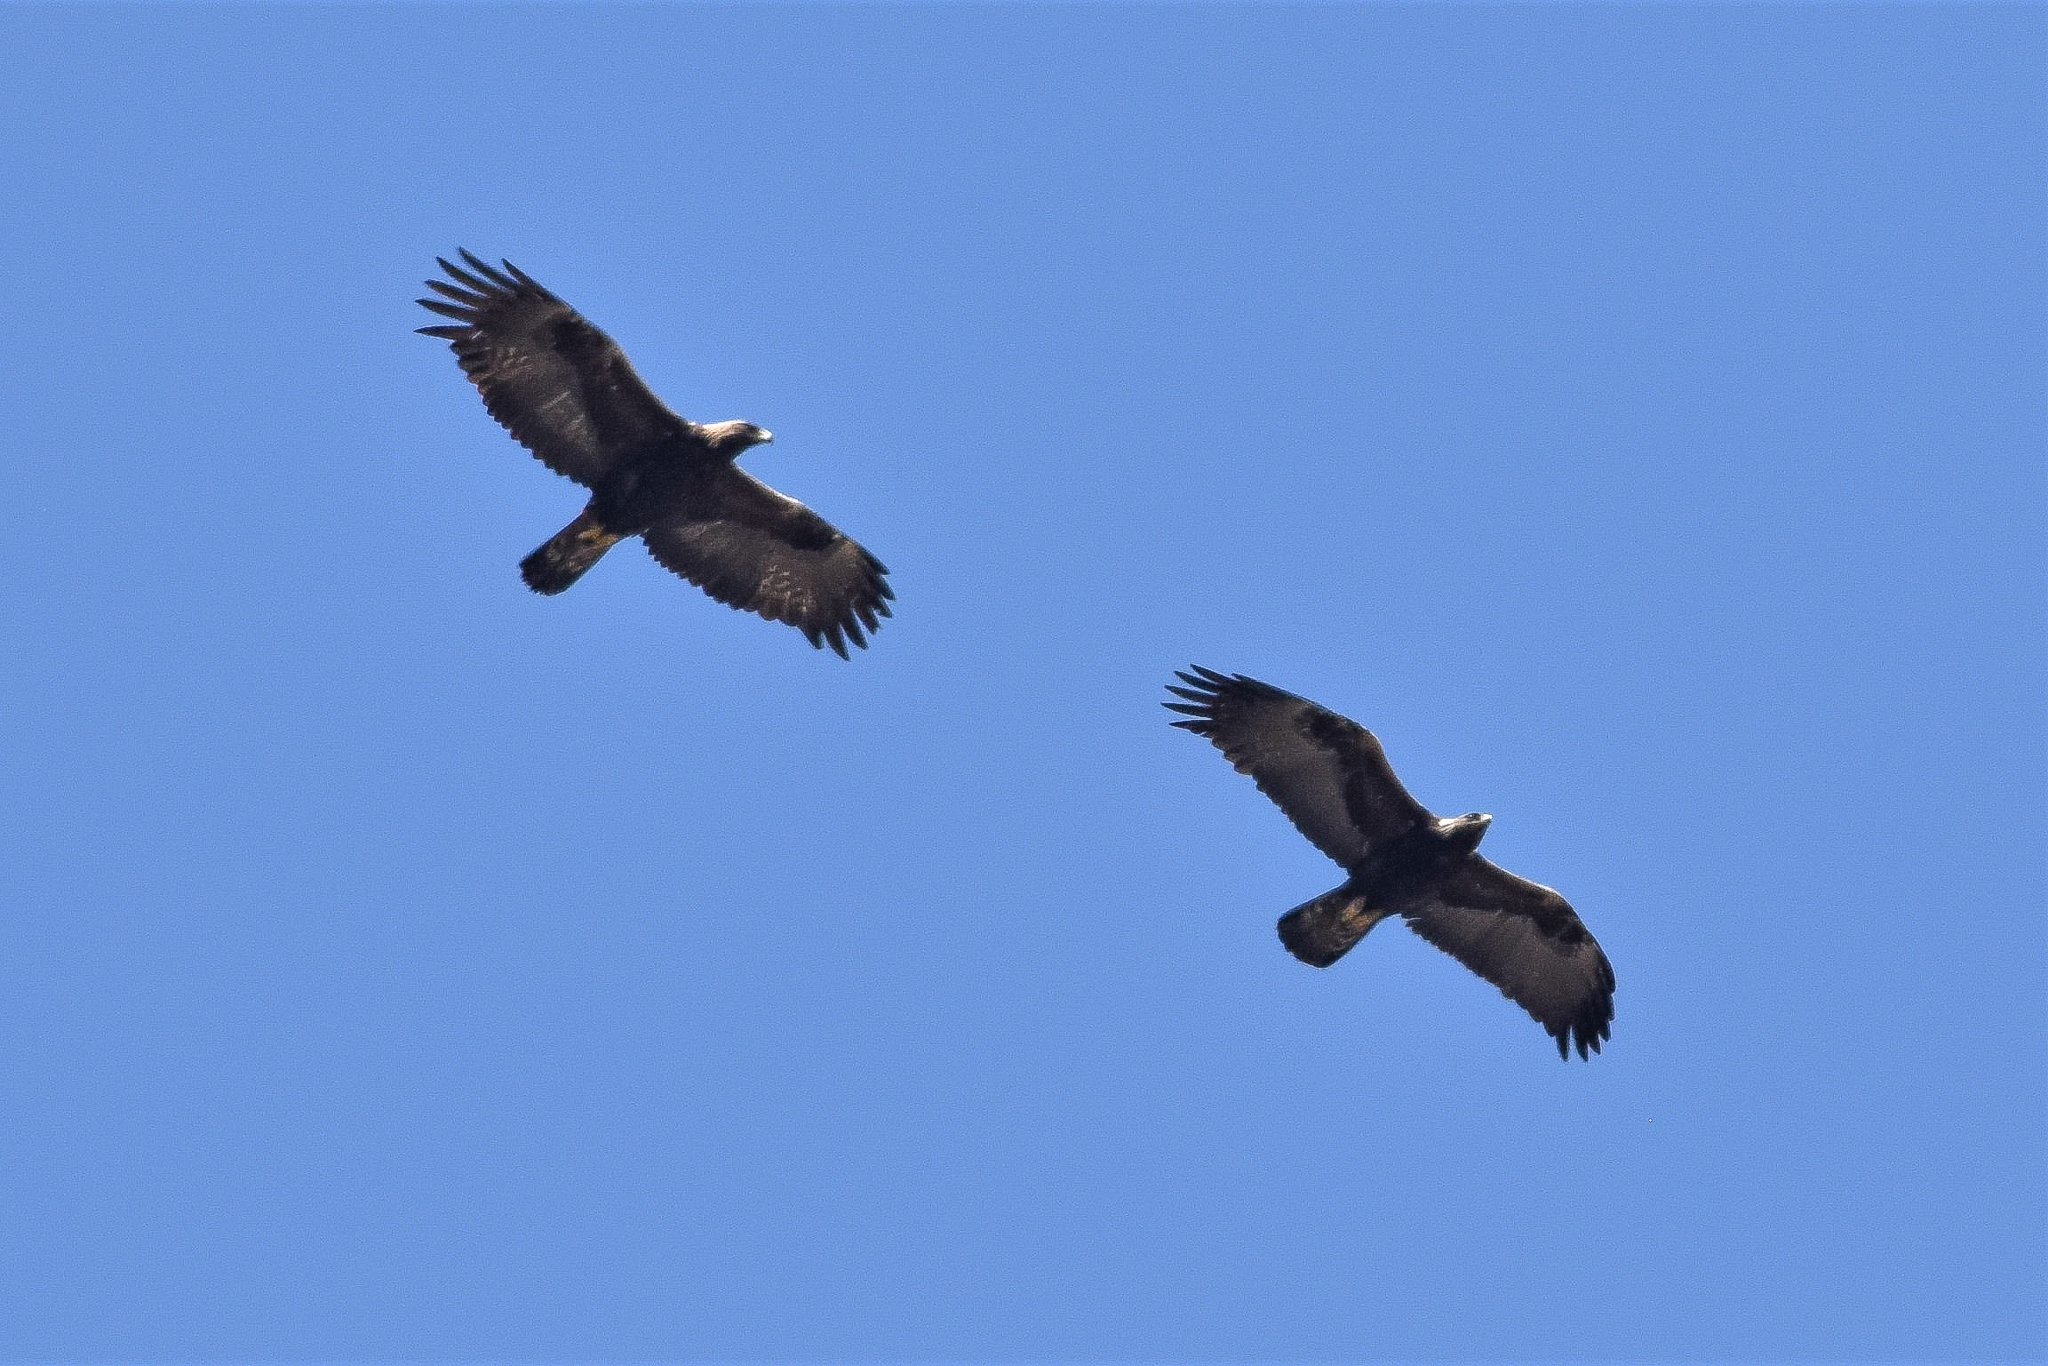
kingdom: Animalia
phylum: Chordata
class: Aves
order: Accipitriformes
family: Accipitridae
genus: Aquila
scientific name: Aquila chrysaetos
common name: Golden eagle
